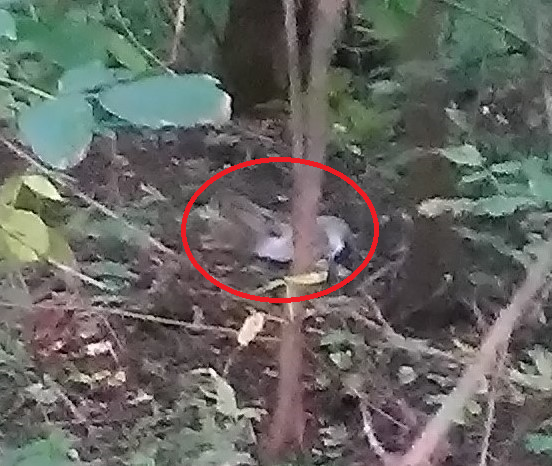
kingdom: Animalia
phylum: Chordata
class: Mammalia
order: Lagomorpha
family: Leporidae
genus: Lepus
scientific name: Lepus europaeus
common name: European hare
